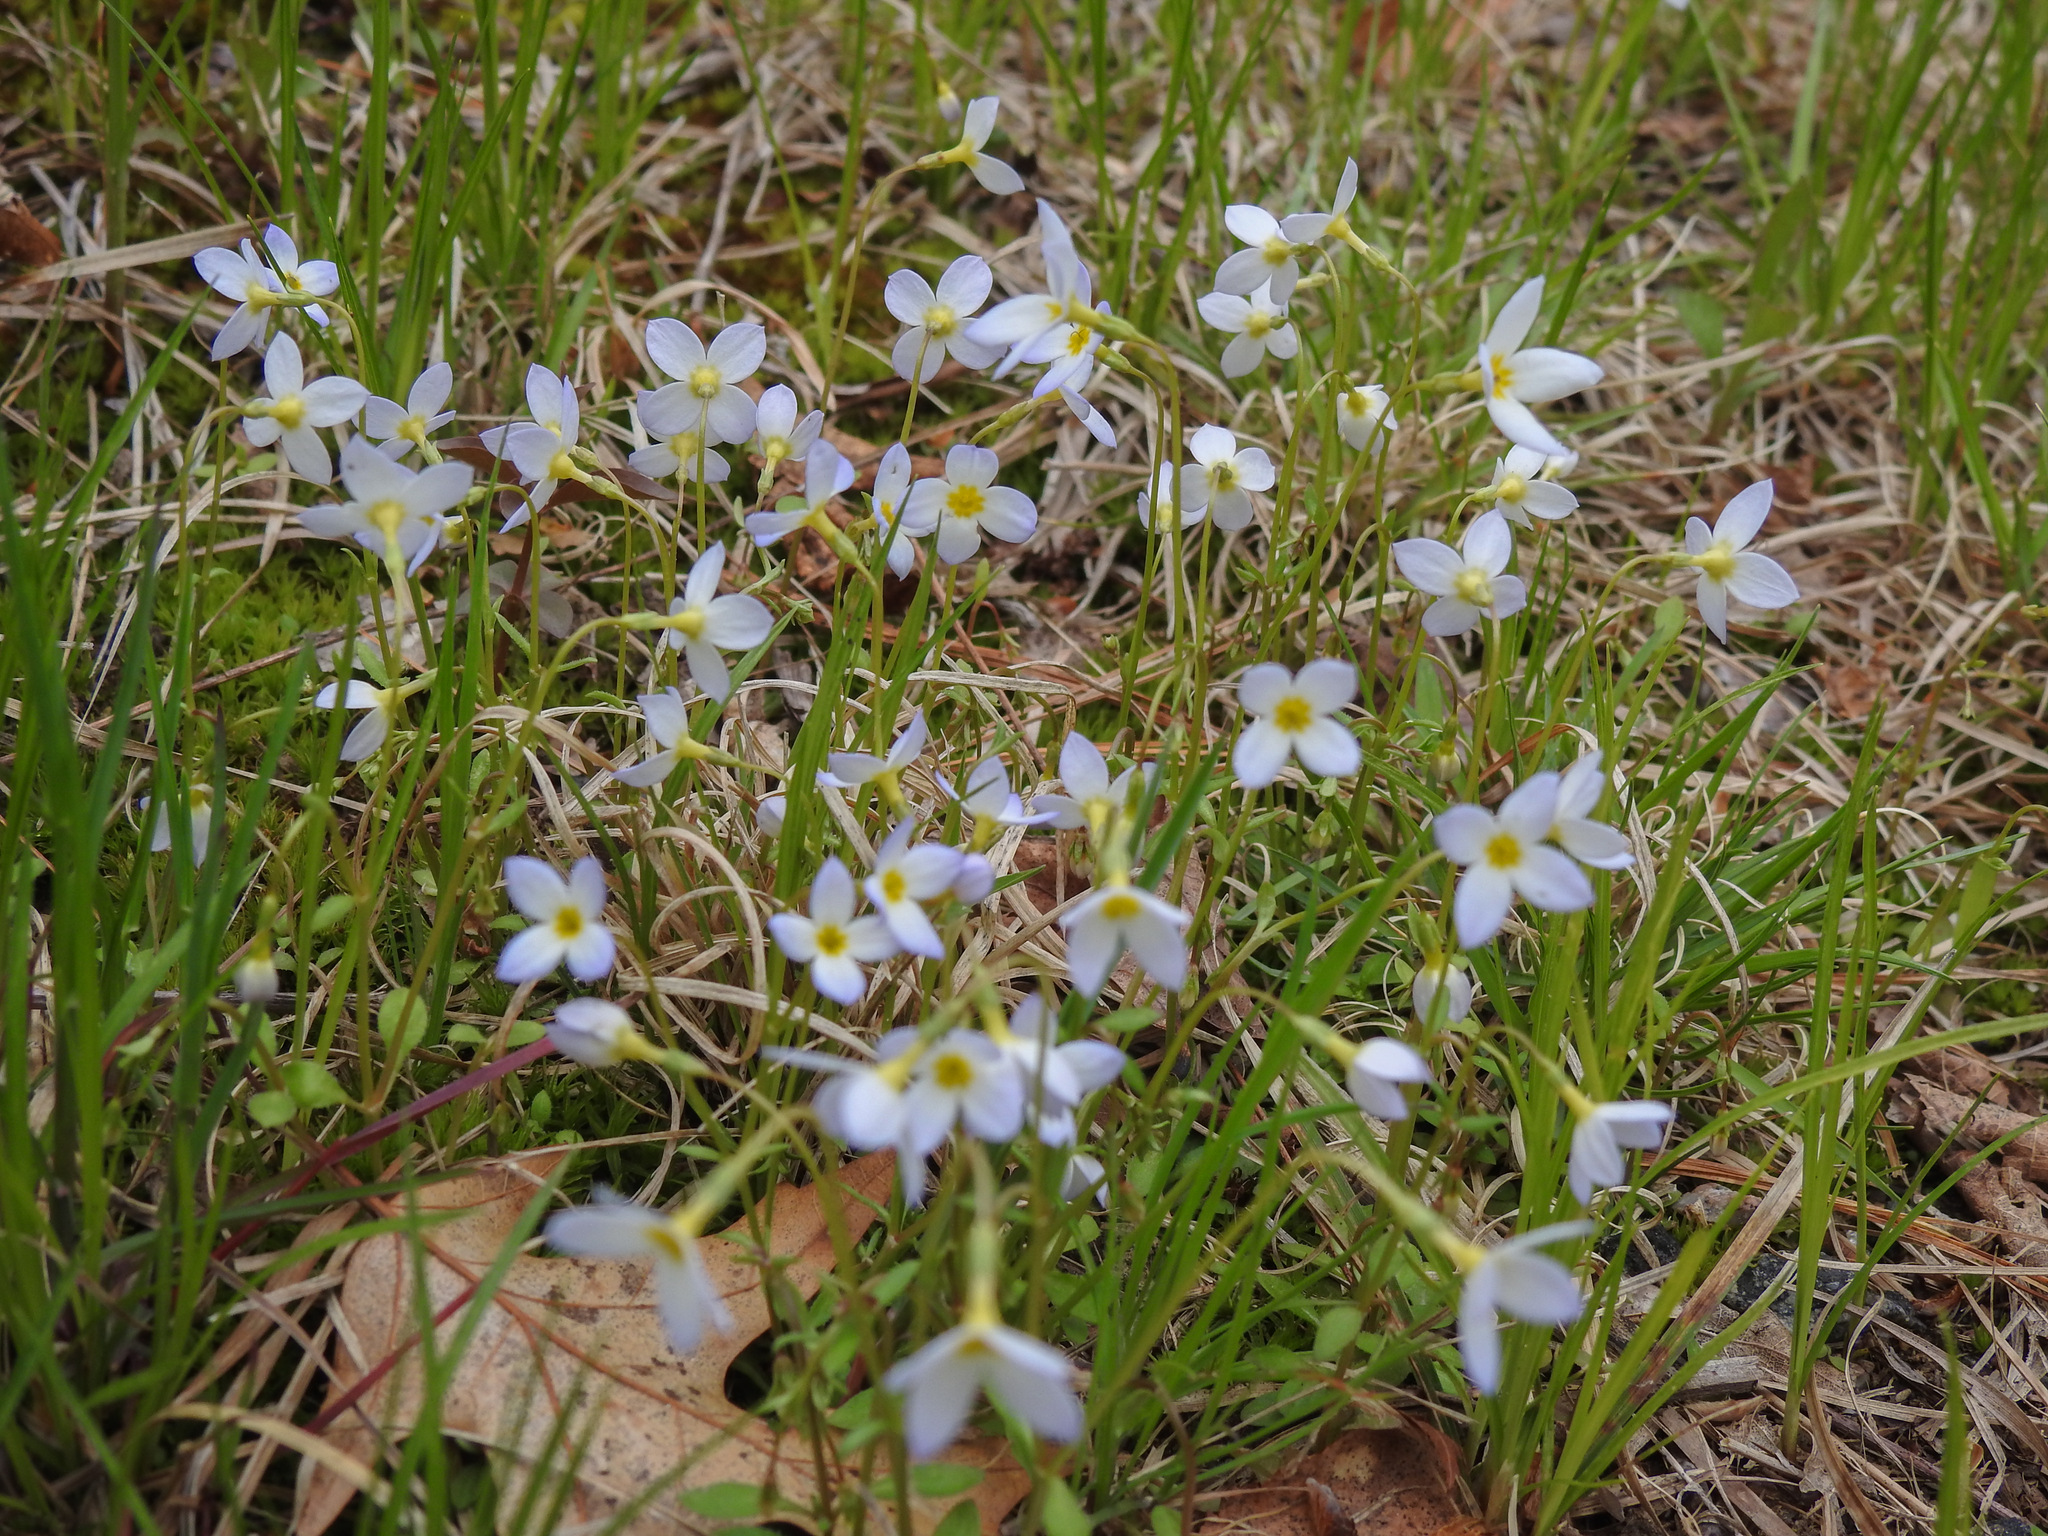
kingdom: Plantae
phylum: Tracheophyta
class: Magnoliopsida
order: Gentianales
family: Rubiaceae
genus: Houstonia
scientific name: Houstonia caerulea
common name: Bluets
